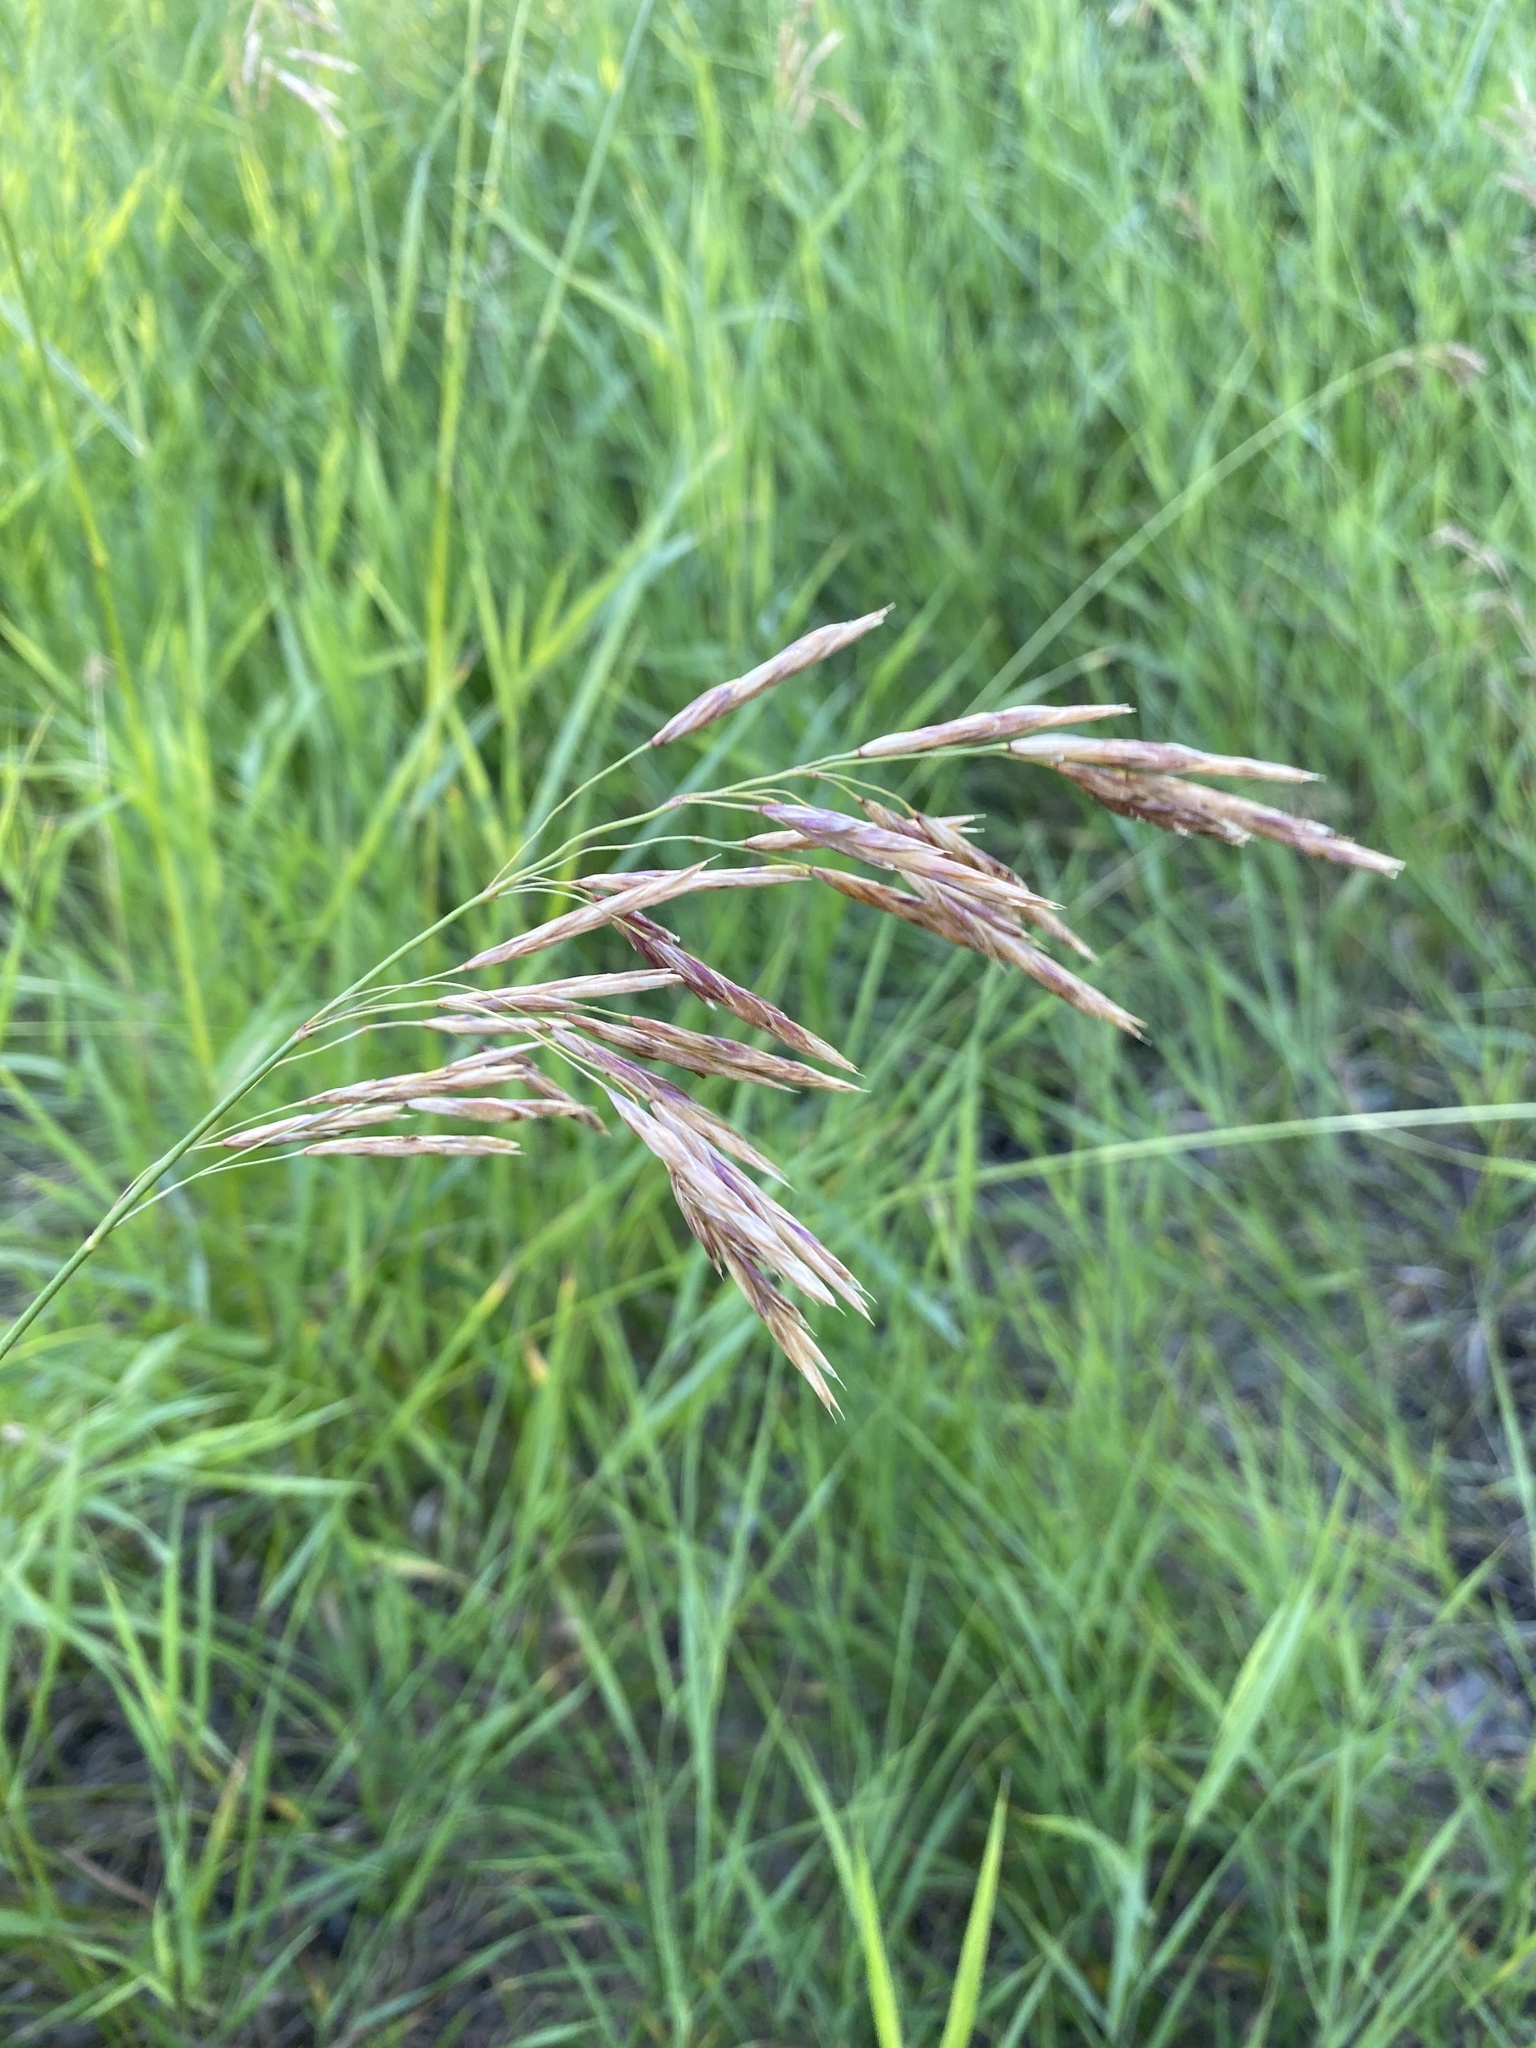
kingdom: Plantae
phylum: Tracheophyta
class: Liliopsida
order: Poales
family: Poaceae
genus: Bromus
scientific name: Bromus inermis
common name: Smooth brome
